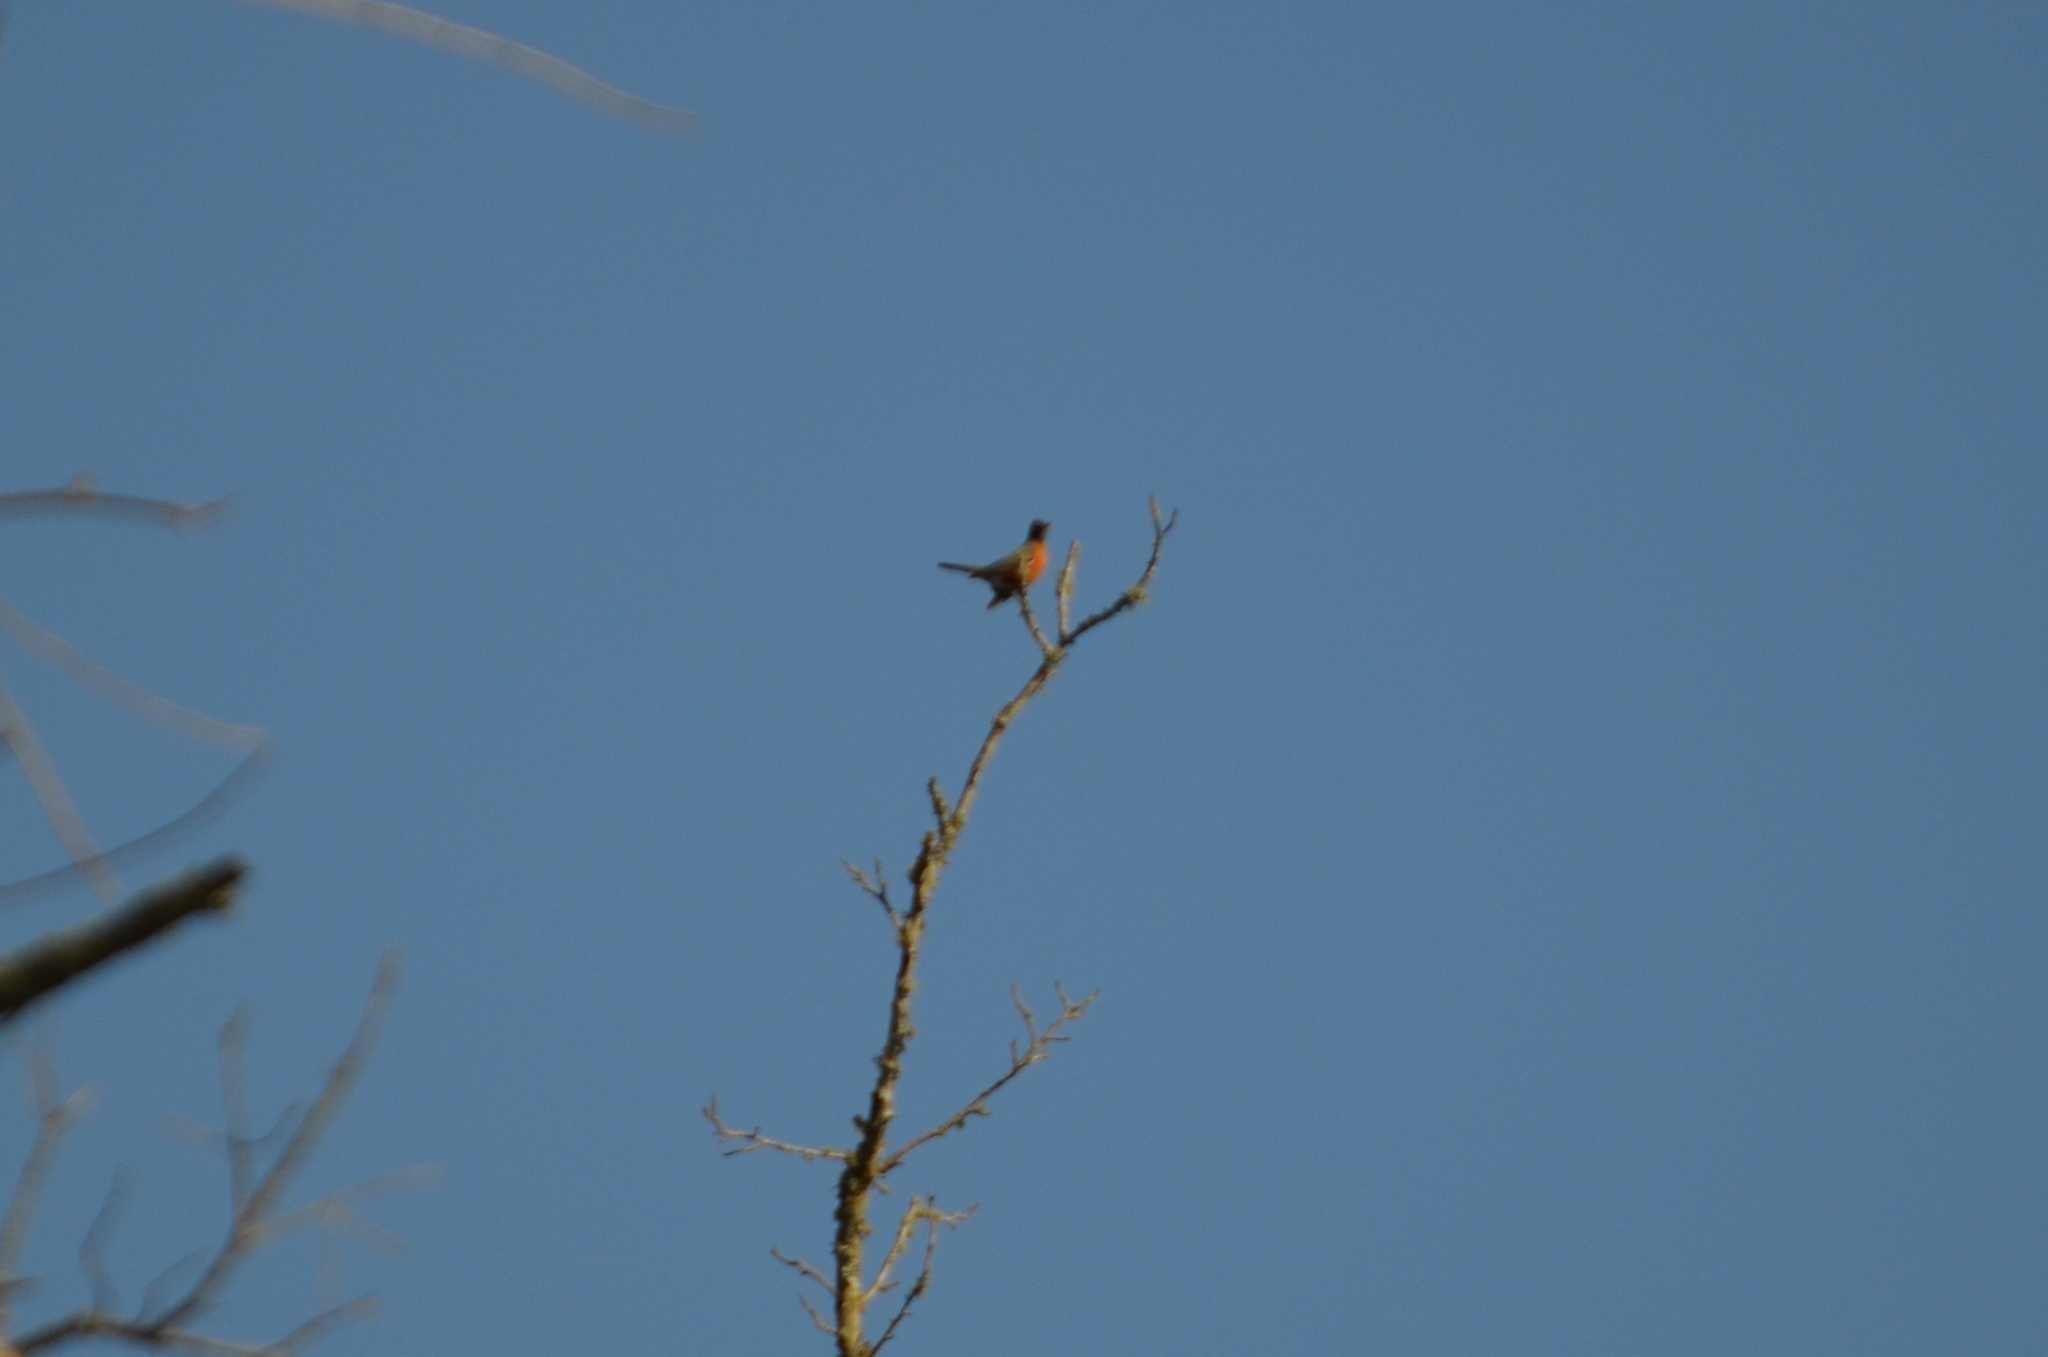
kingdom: Animalia
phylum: Chordata
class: Aves
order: Passeriformes
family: Turdidae
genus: Turdus
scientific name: Turdus migratorius
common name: American robin
